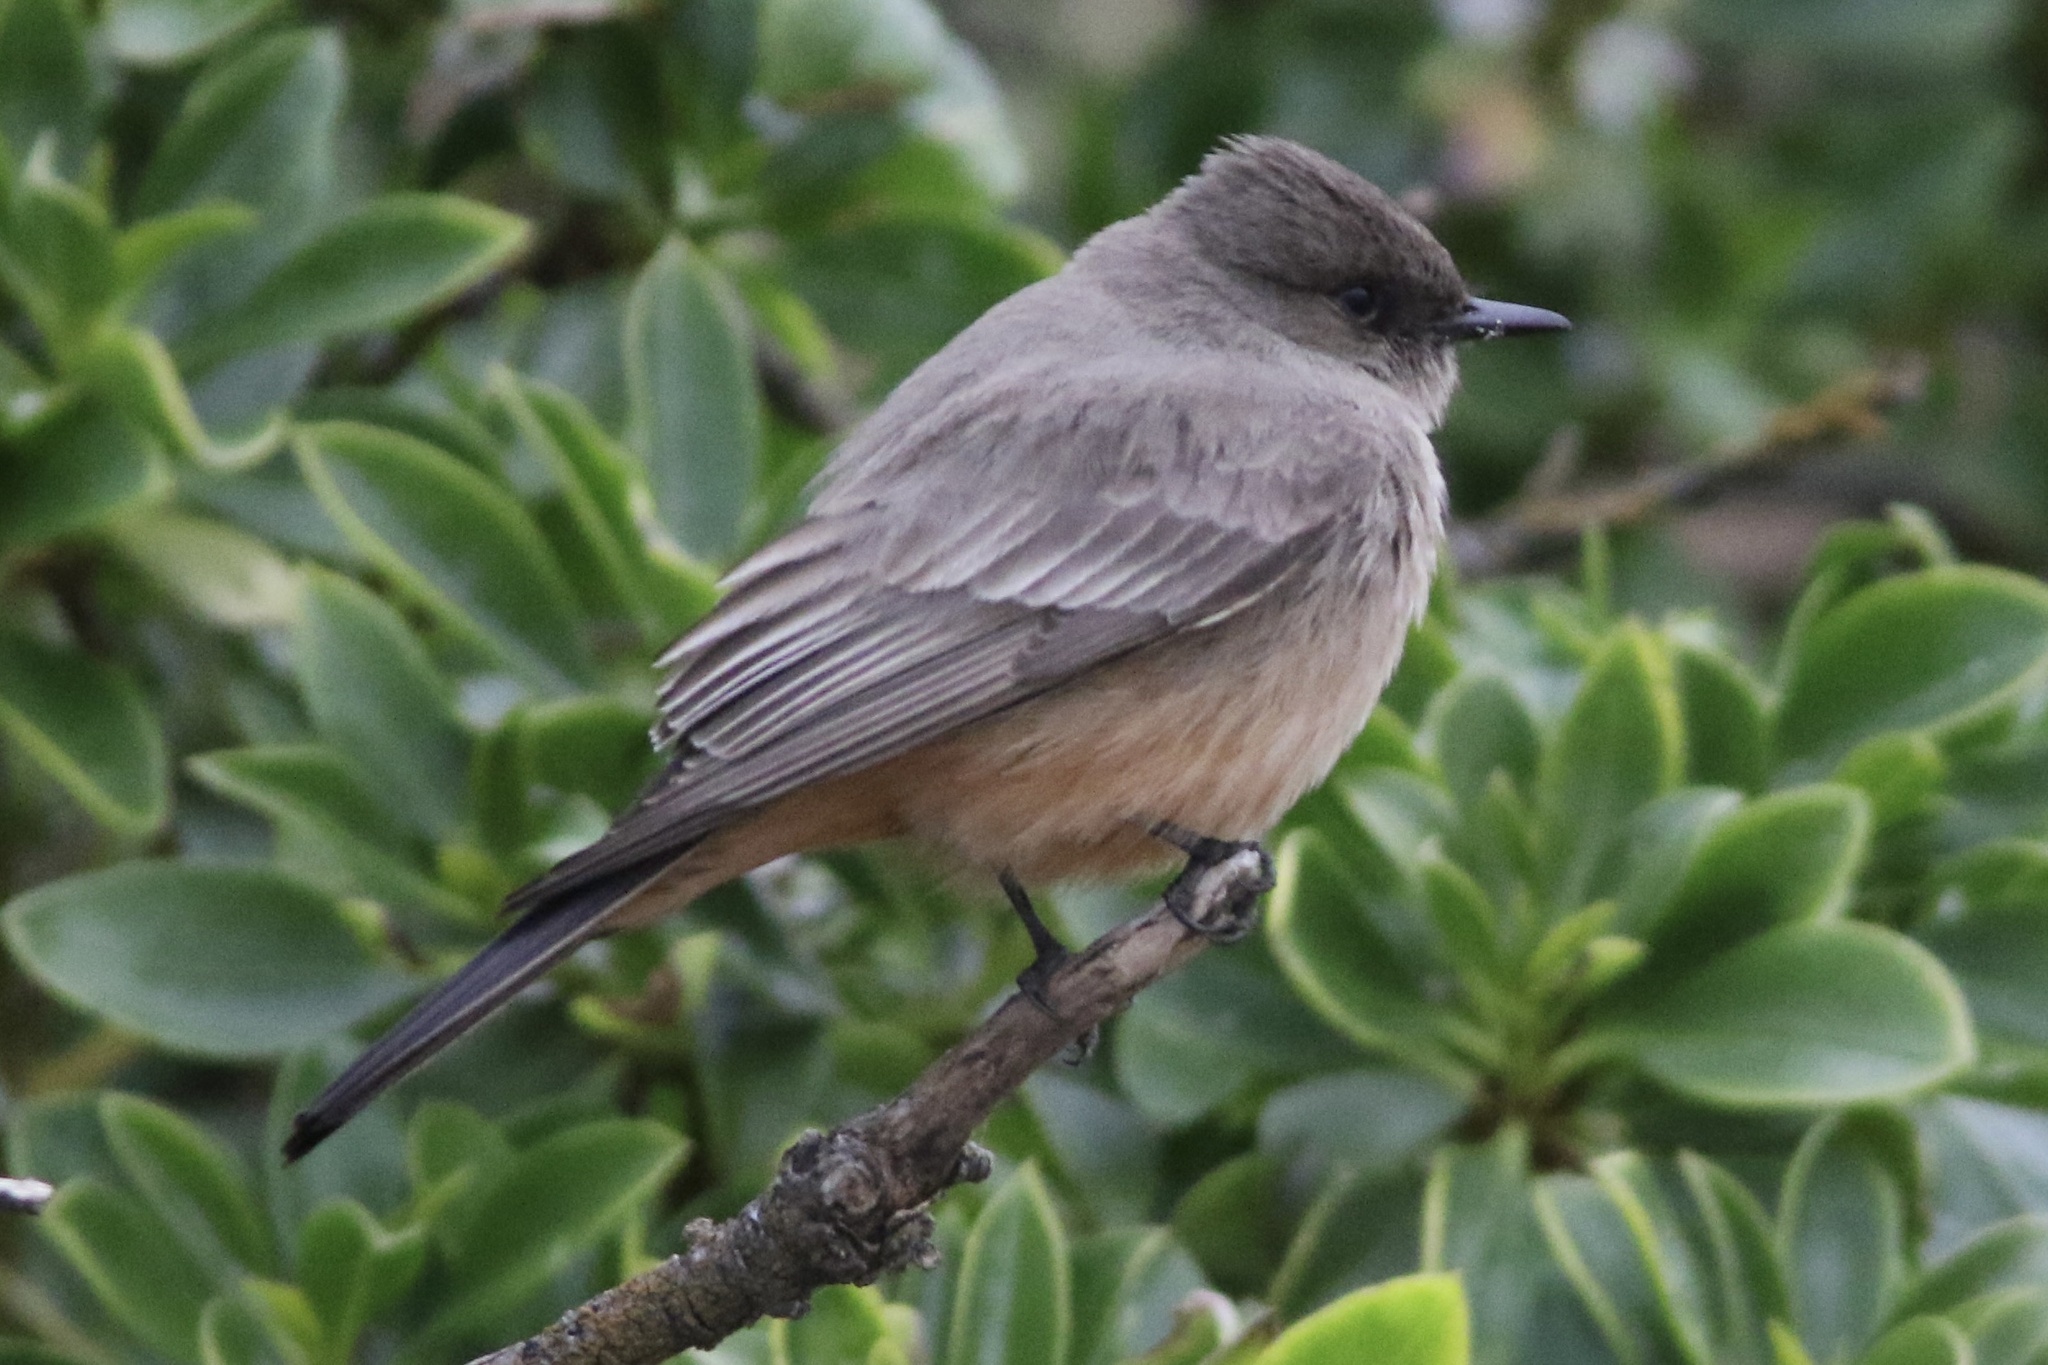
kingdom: Animalia
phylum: Chordata
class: Aves
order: Passeriformes
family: Tyrannidae
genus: Sayornis
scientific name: Sayornis saya
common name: Say's phoebe
